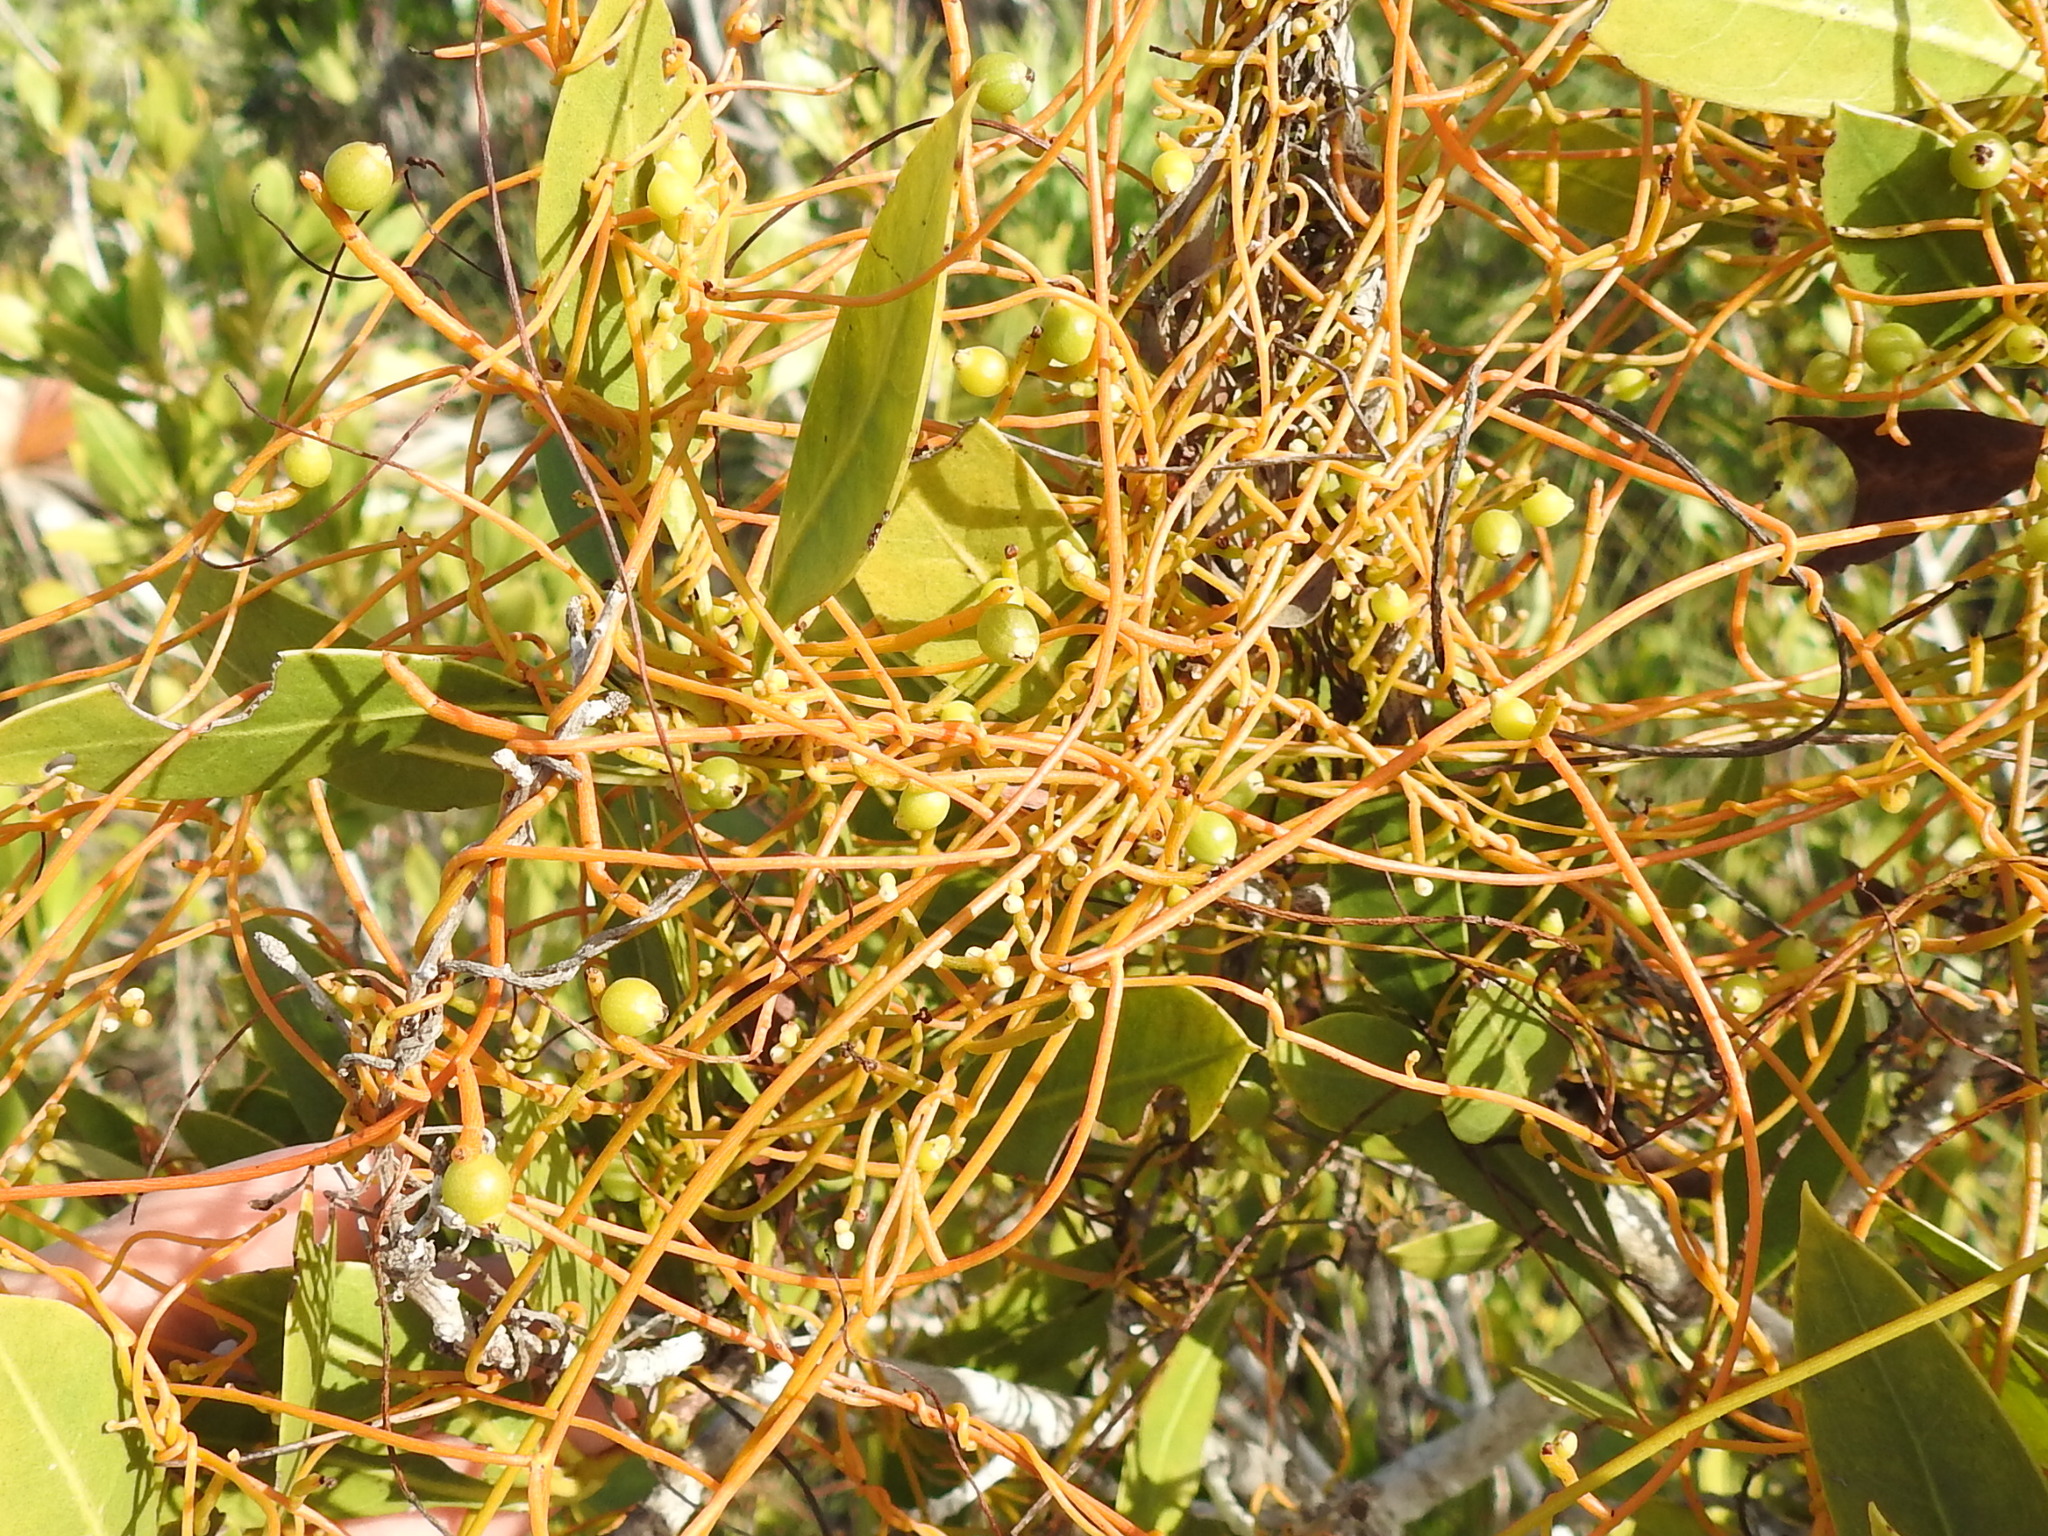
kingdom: Plantae
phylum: Tracheophyta
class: Magnoliopsida
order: Laurales
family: Lauraceae
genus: Cassytha
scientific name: Cassytha filiformis
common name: Dodder-laurel
